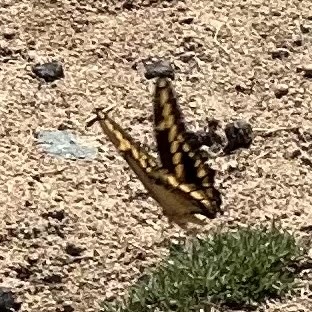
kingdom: Animalia
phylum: Arthropoda
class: Insecta
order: Lepidoptera
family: Papilionidae
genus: Papilio
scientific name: Papilio rumiko
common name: Western giant swallowtail
